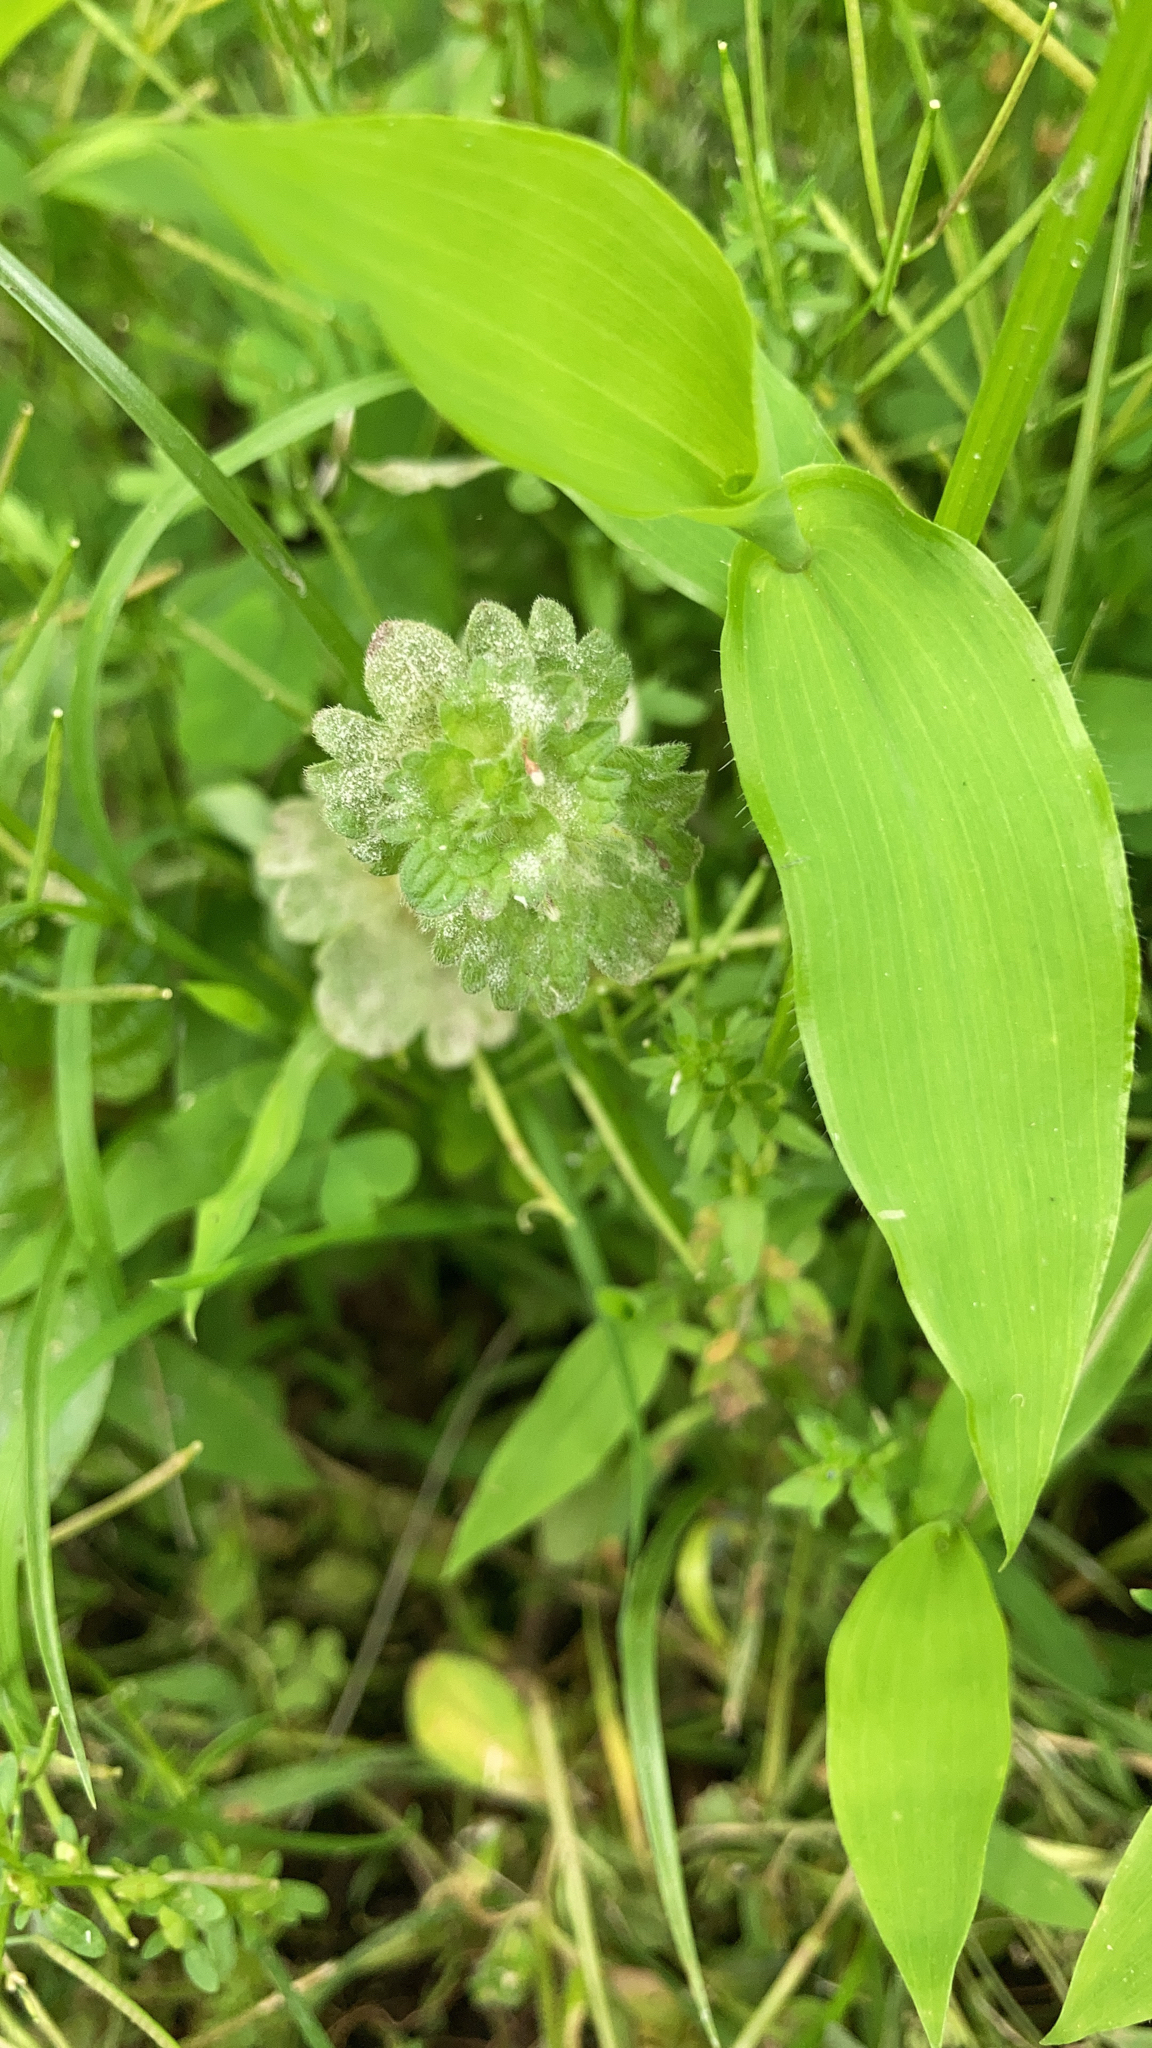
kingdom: Plantae
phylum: Tracheophyta
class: Magnoliopsida
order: Lamiales
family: Lamiaceae
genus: Lamium
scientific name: Lamium amplexicaule
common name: Henbit dead-nettle
